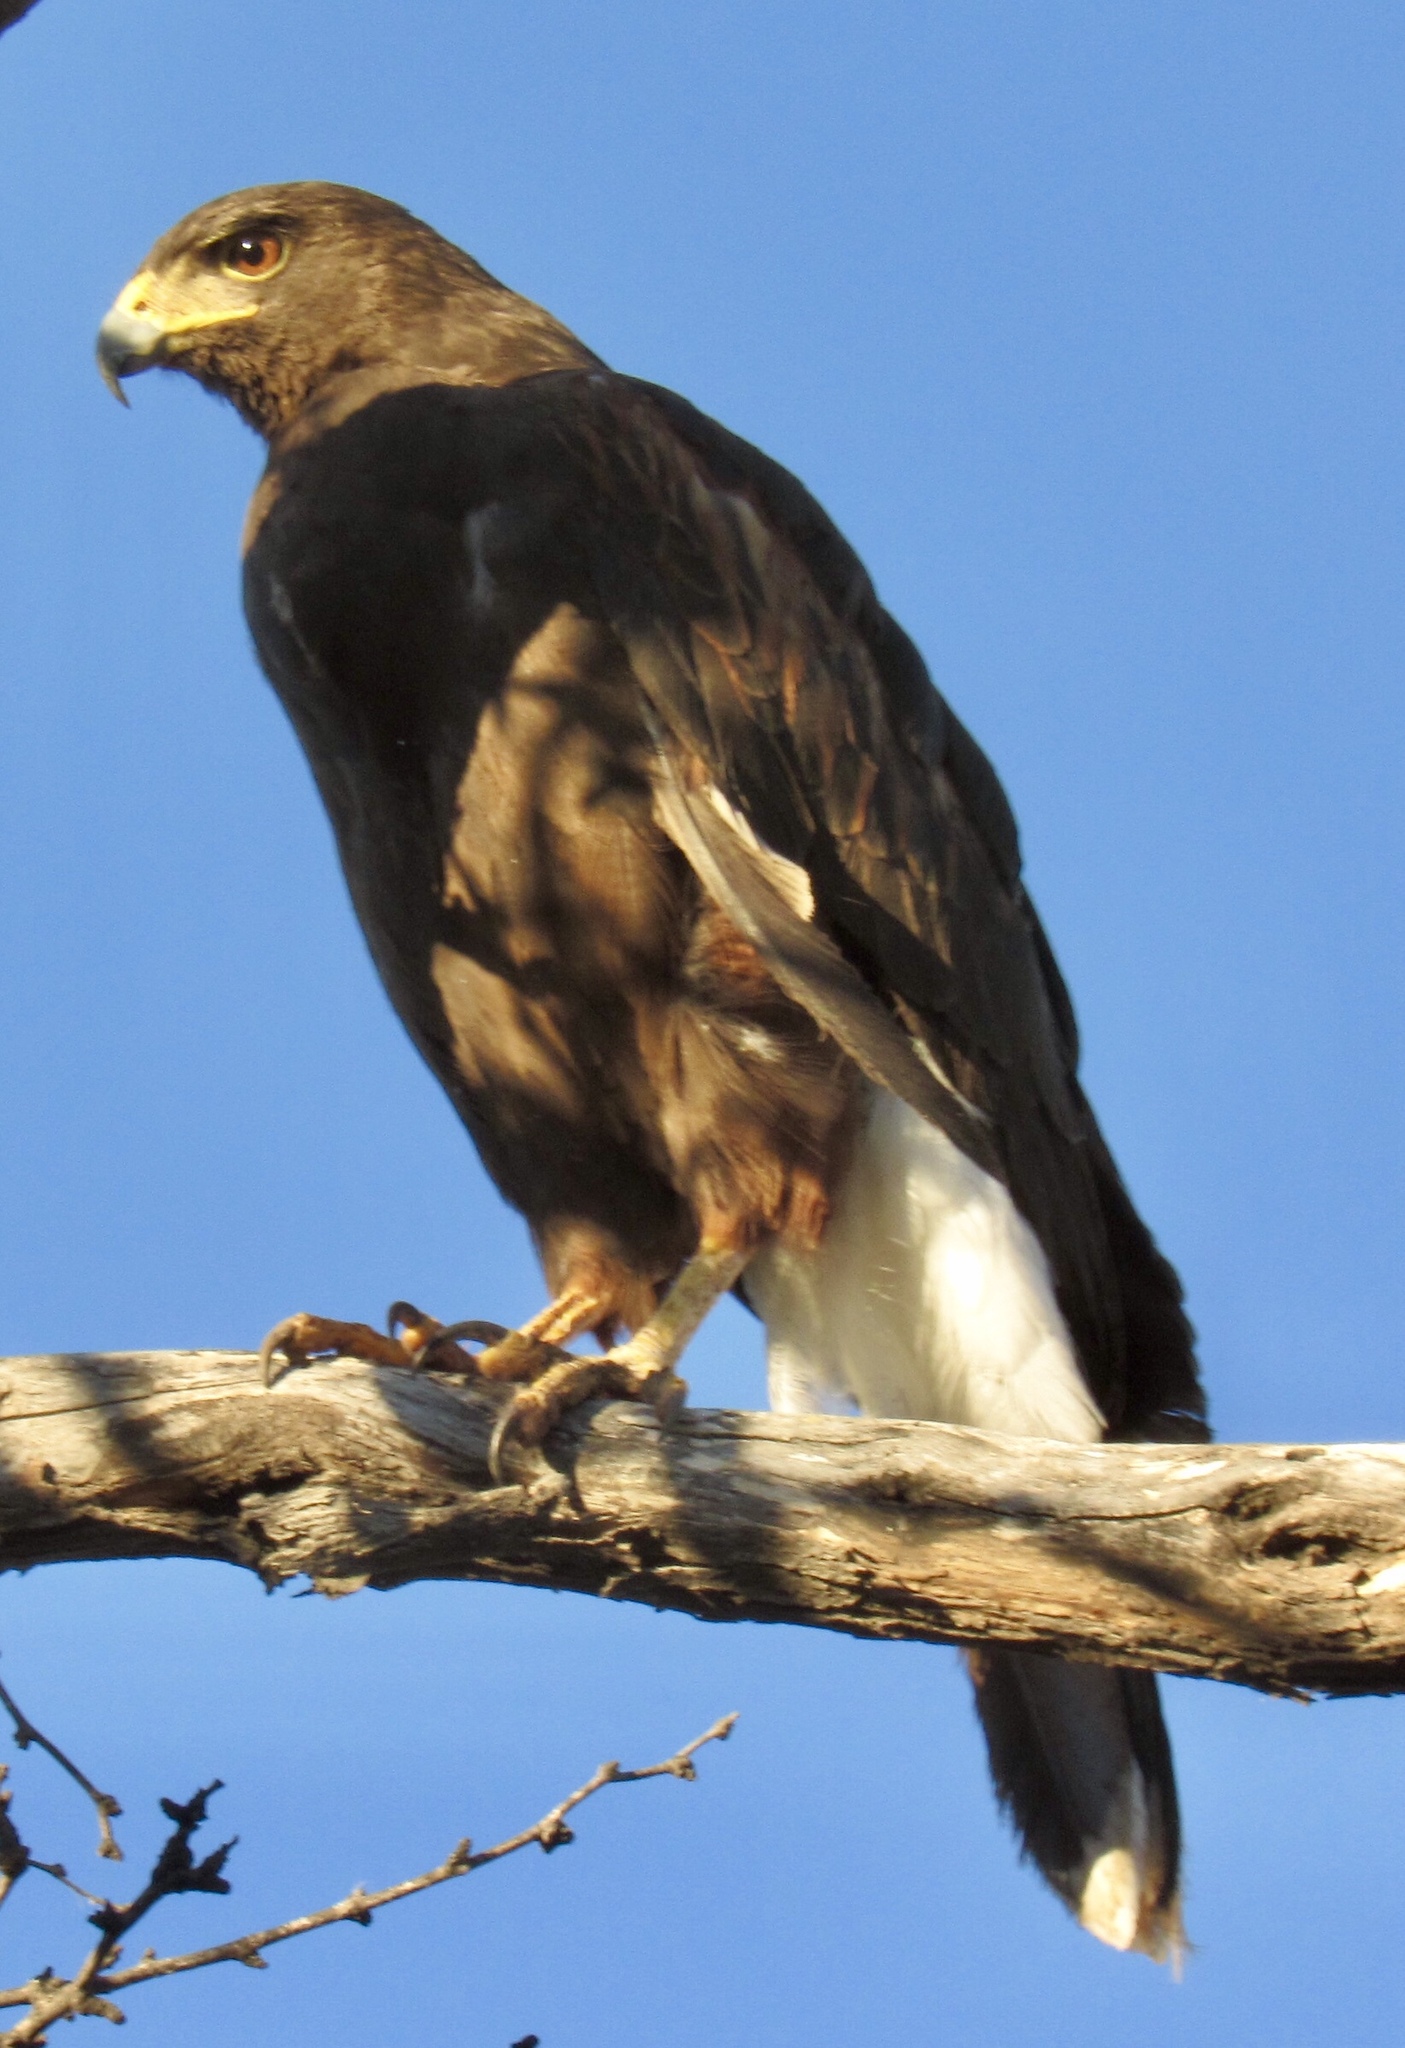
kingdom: Animalia
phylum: Chordata
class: Aves
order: Accipitriformes
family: Accipitridae
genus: Parabuteo
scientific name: Parabuteo unicinctus
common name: Harris's hawk
